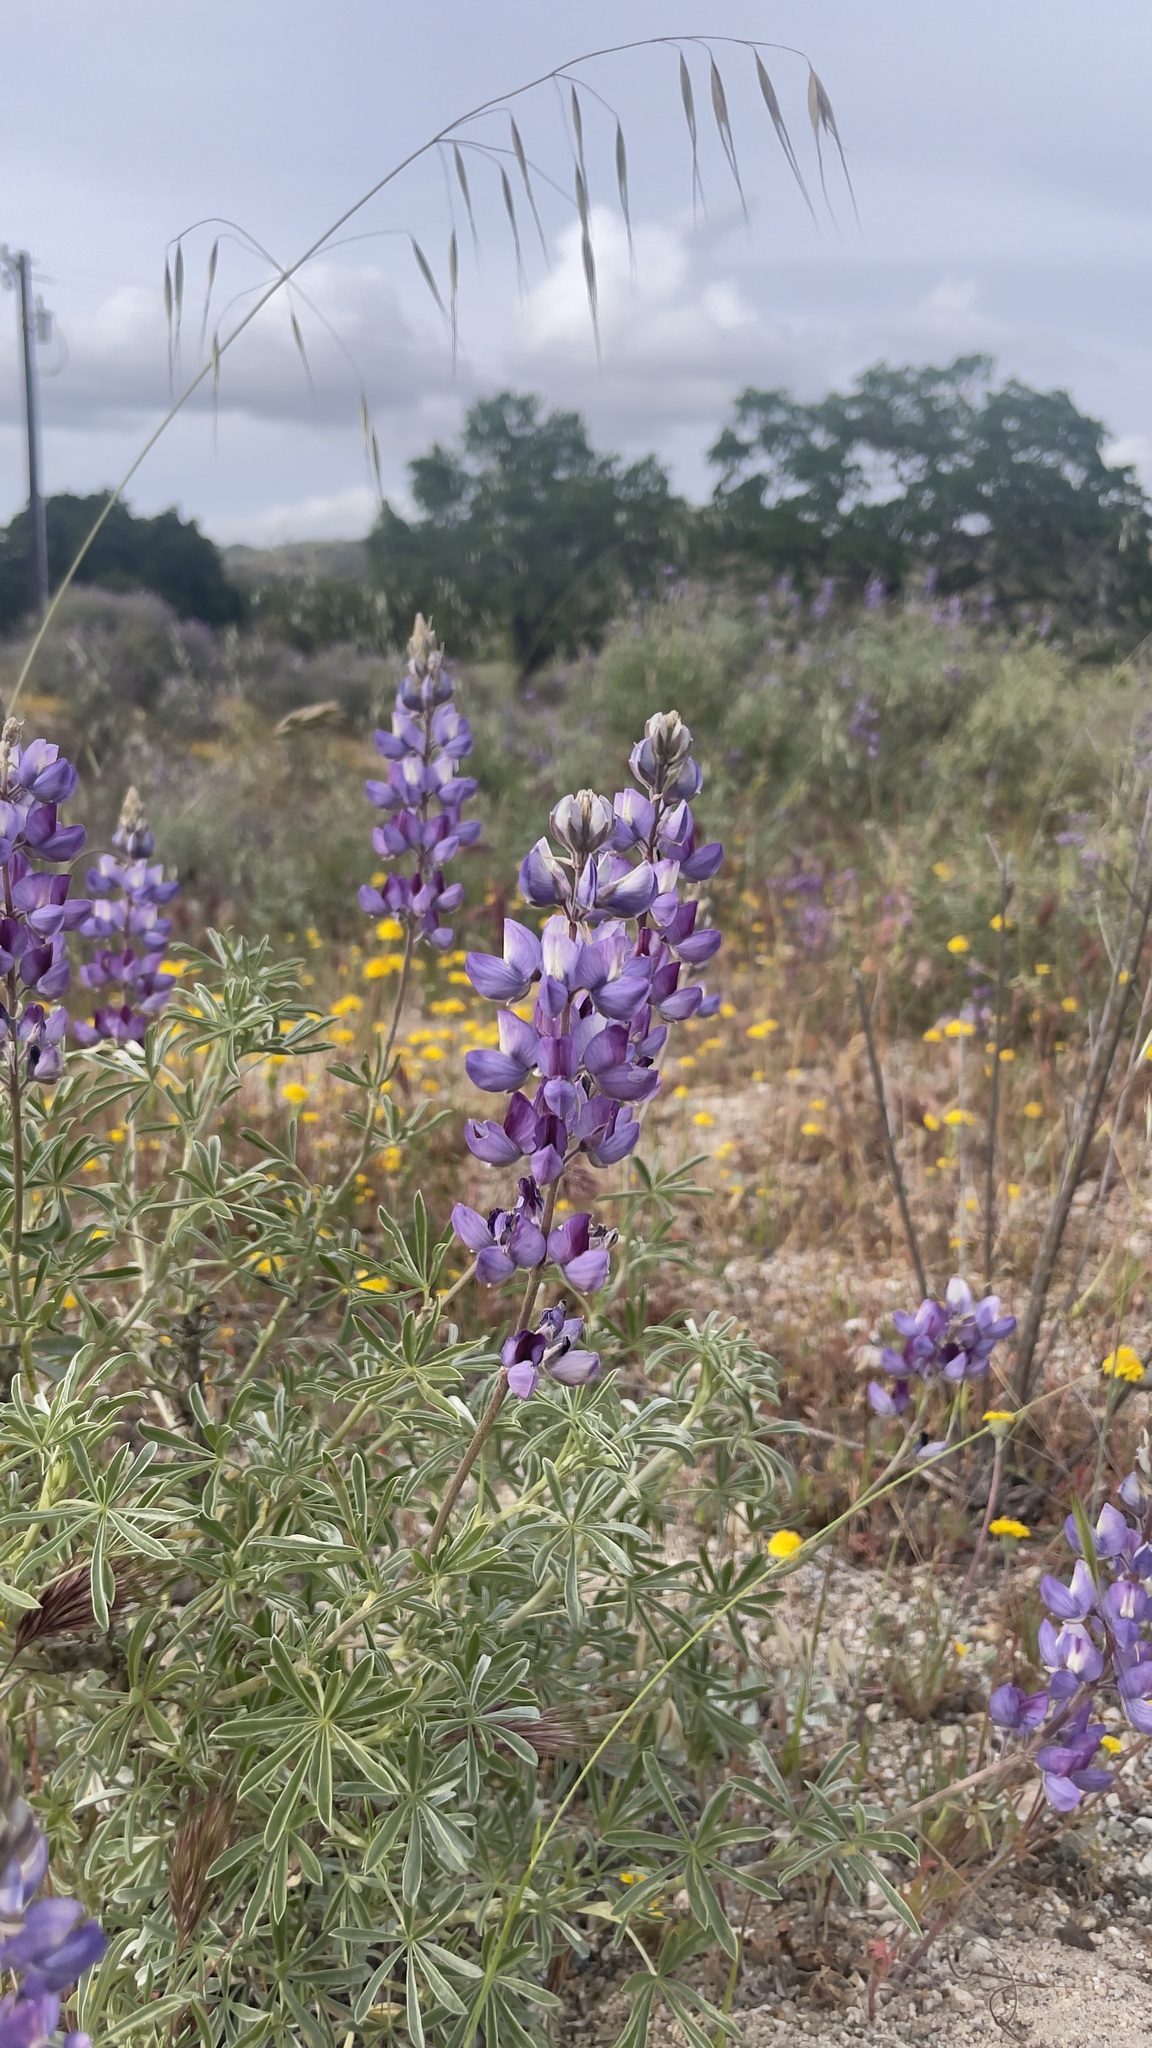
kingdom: Plantae
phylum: Tracheophyta
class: Magnoliopsida
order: Fabales
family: Fabaceae
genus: Lupinus
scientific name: Lupinus albifrons
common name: Foothill lupine
